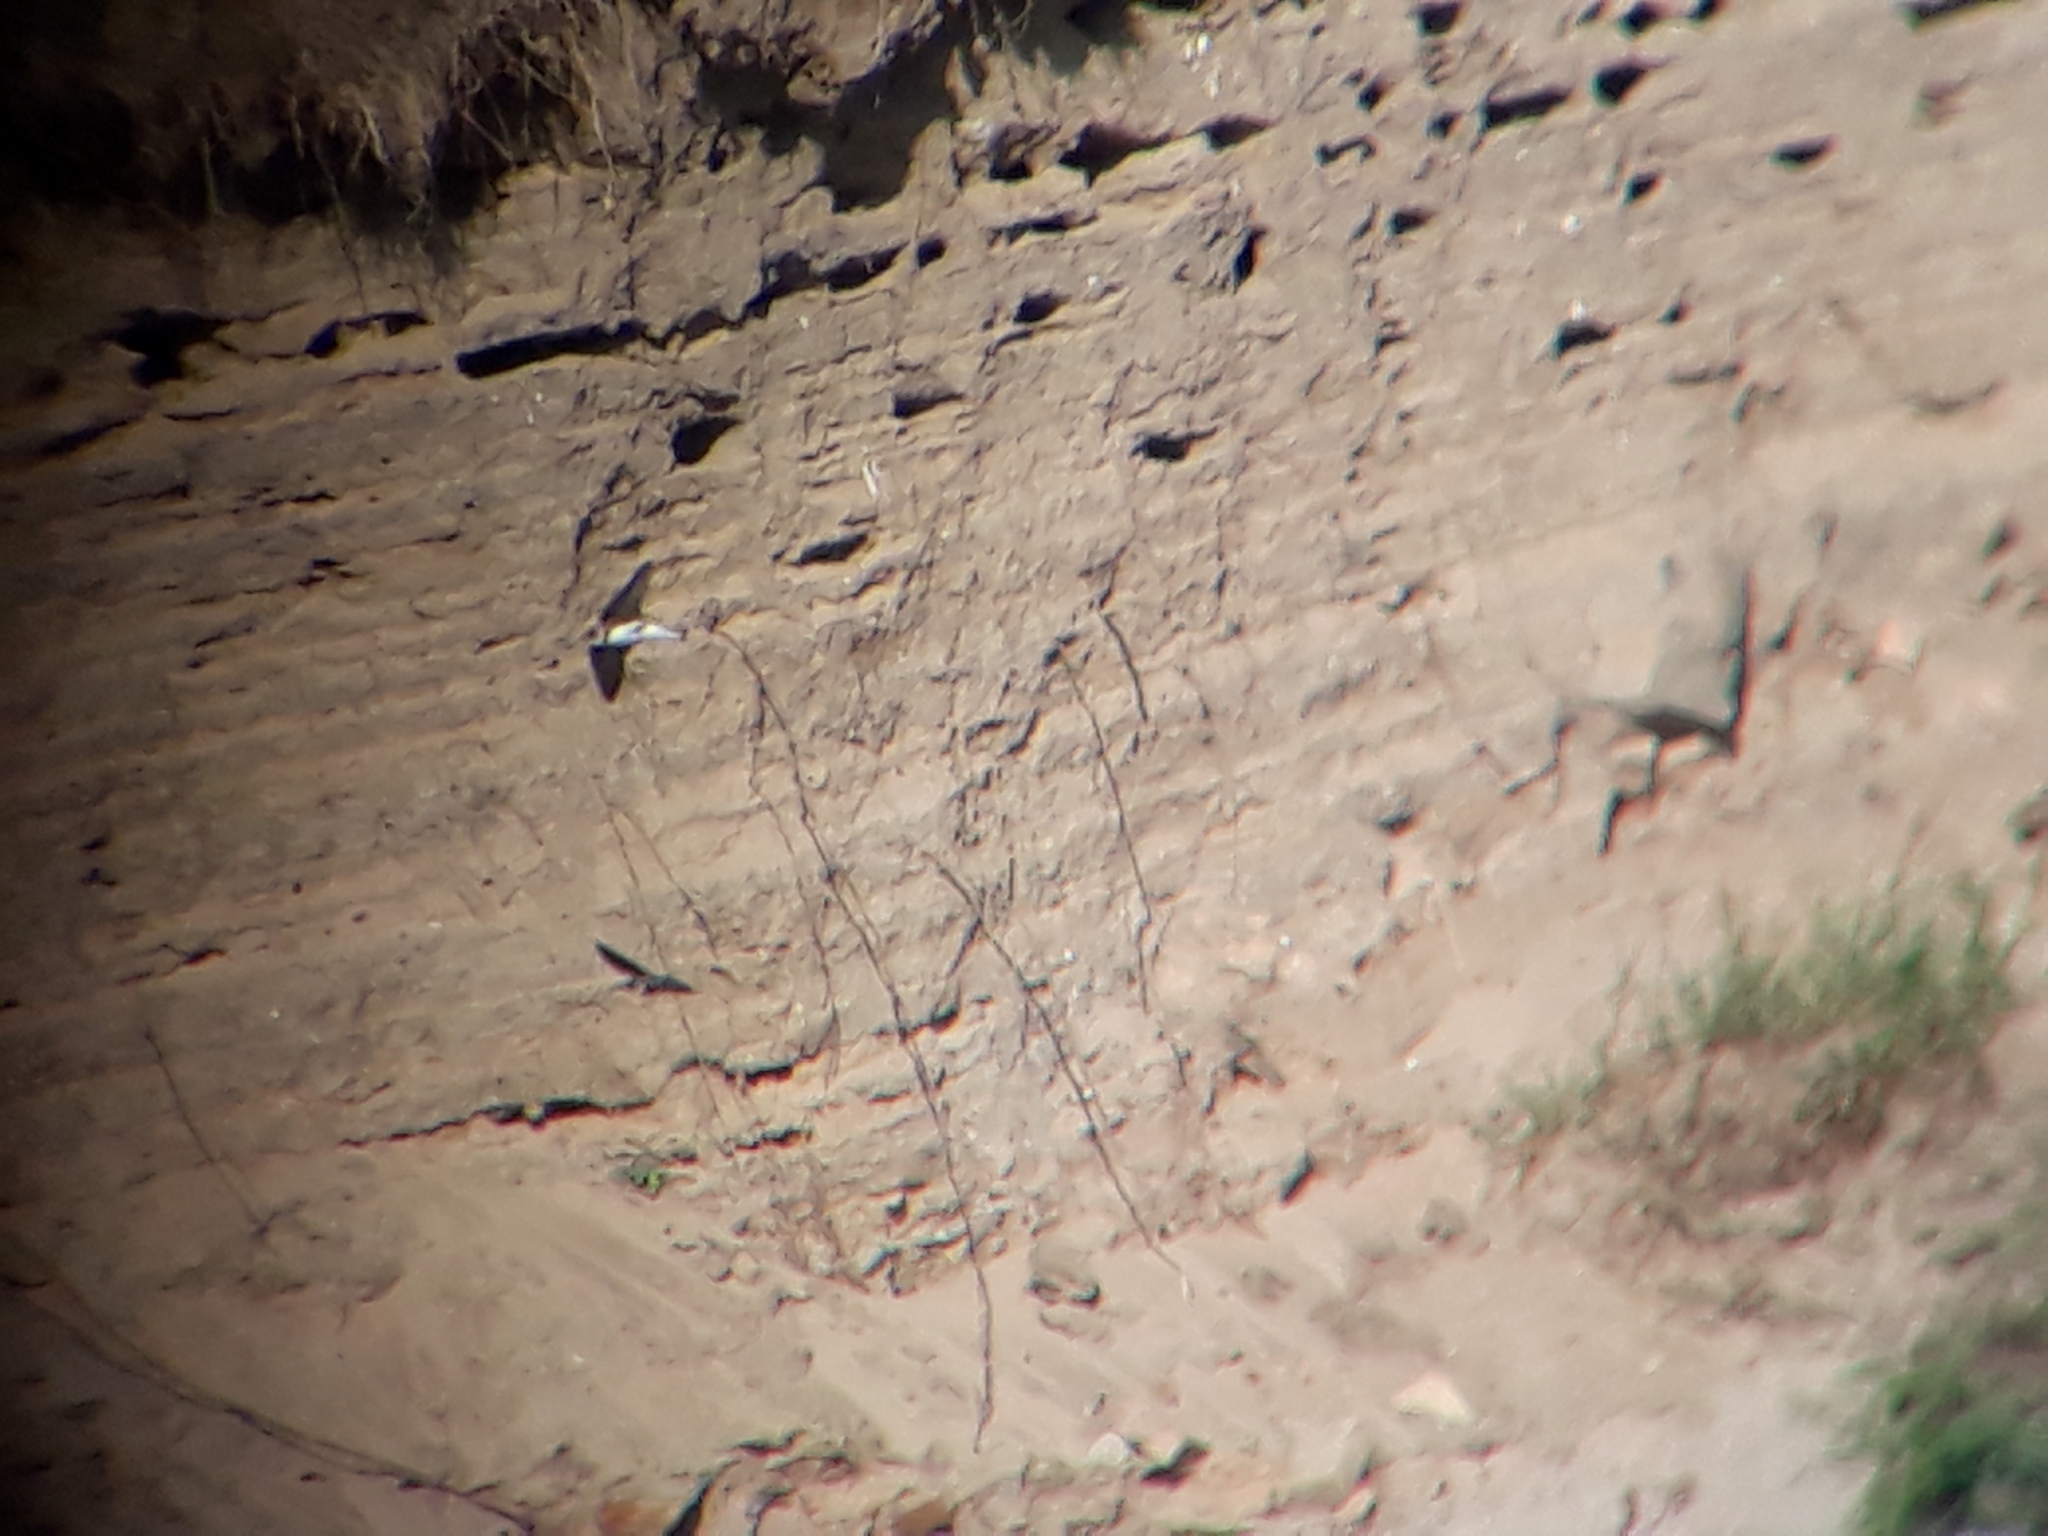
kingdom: Animalia
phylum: Chordata
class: Aves
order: Passeriformes
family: Hirundinidae
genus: Riparia
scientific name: Riparia riparia
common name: Sand martin
